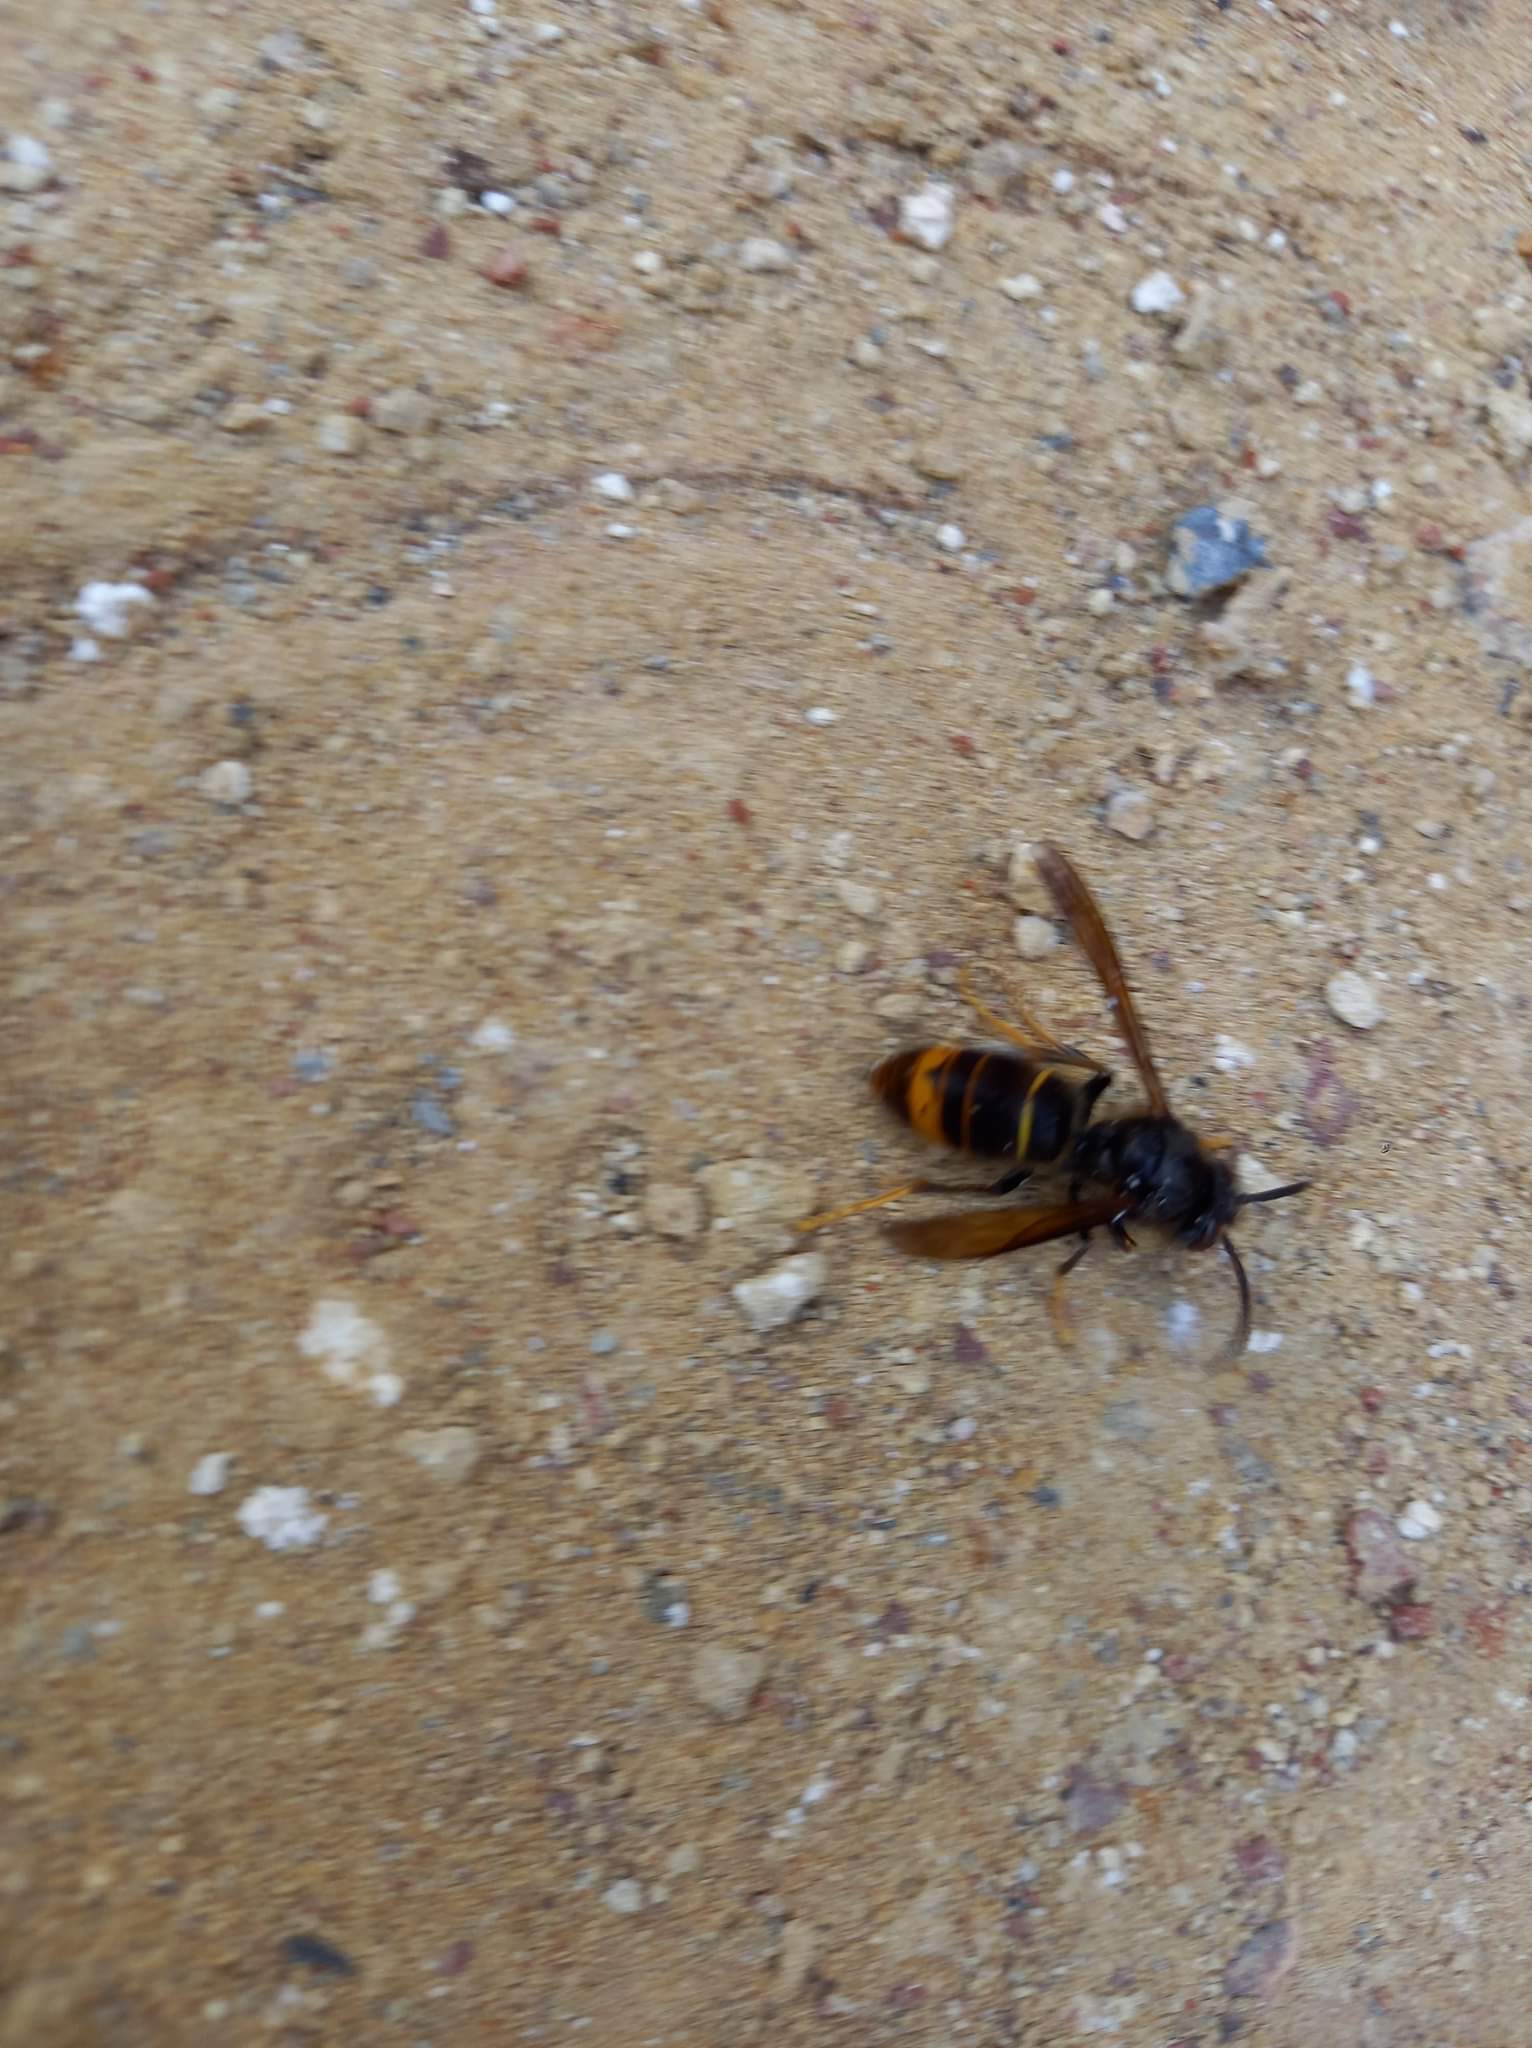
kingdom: Animalia
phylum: Arthropoda
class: Insecta
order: Hymenoptera
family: Vespidae
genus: Vespa
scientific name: Vespa velutina
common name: Asian hornet
